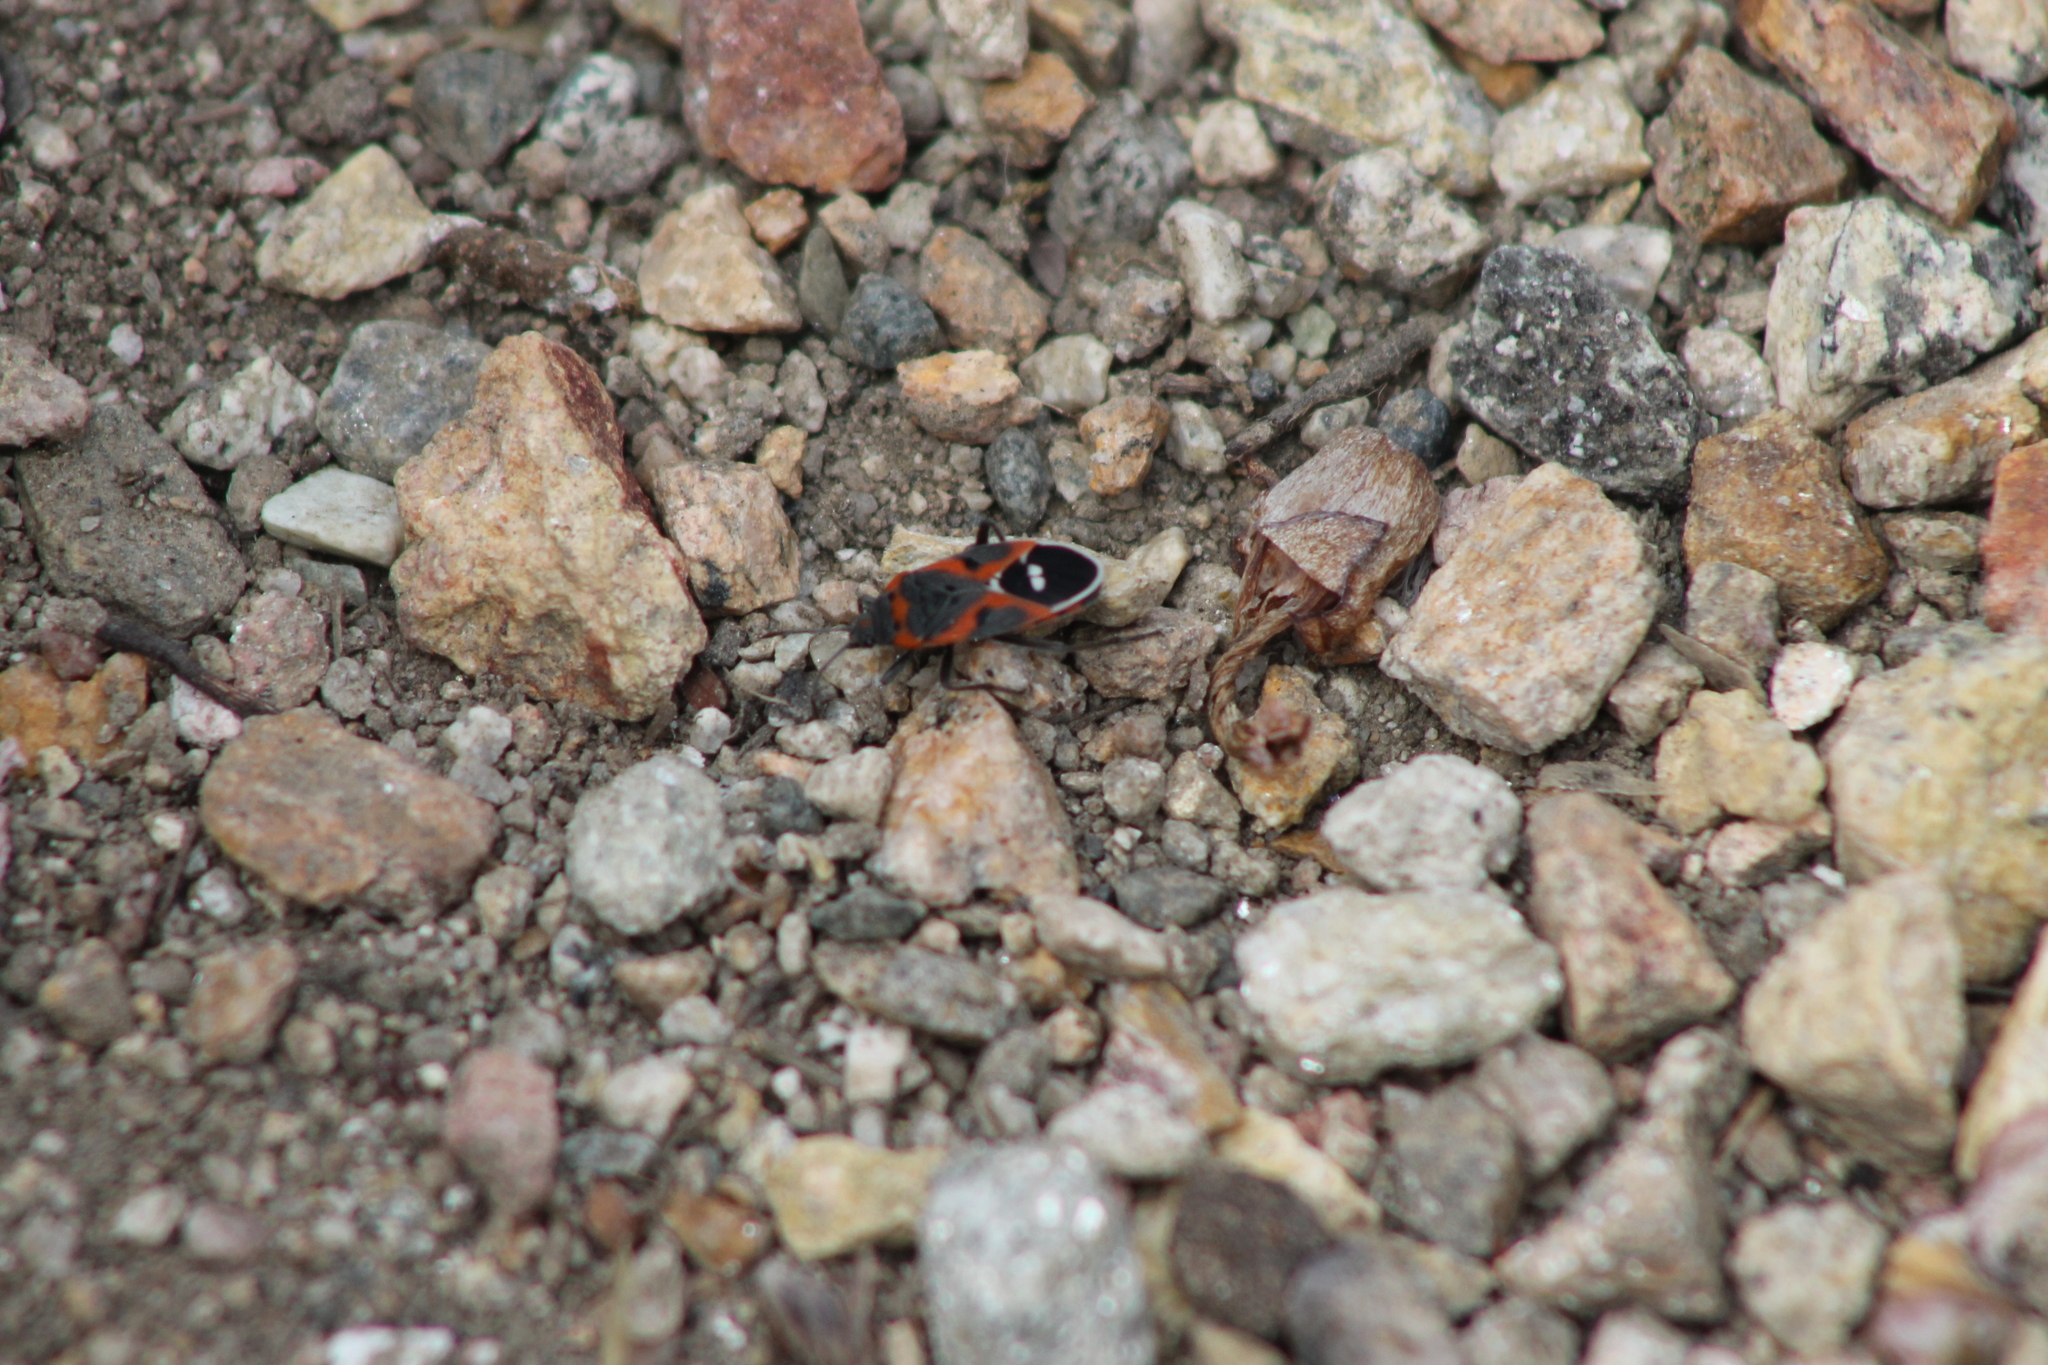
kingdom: Animalia
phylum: Arthropoda
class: Insecta
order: Hemiptera
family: Lygaeidae
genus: Lygaeus
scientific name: Lygaeus kalmii
